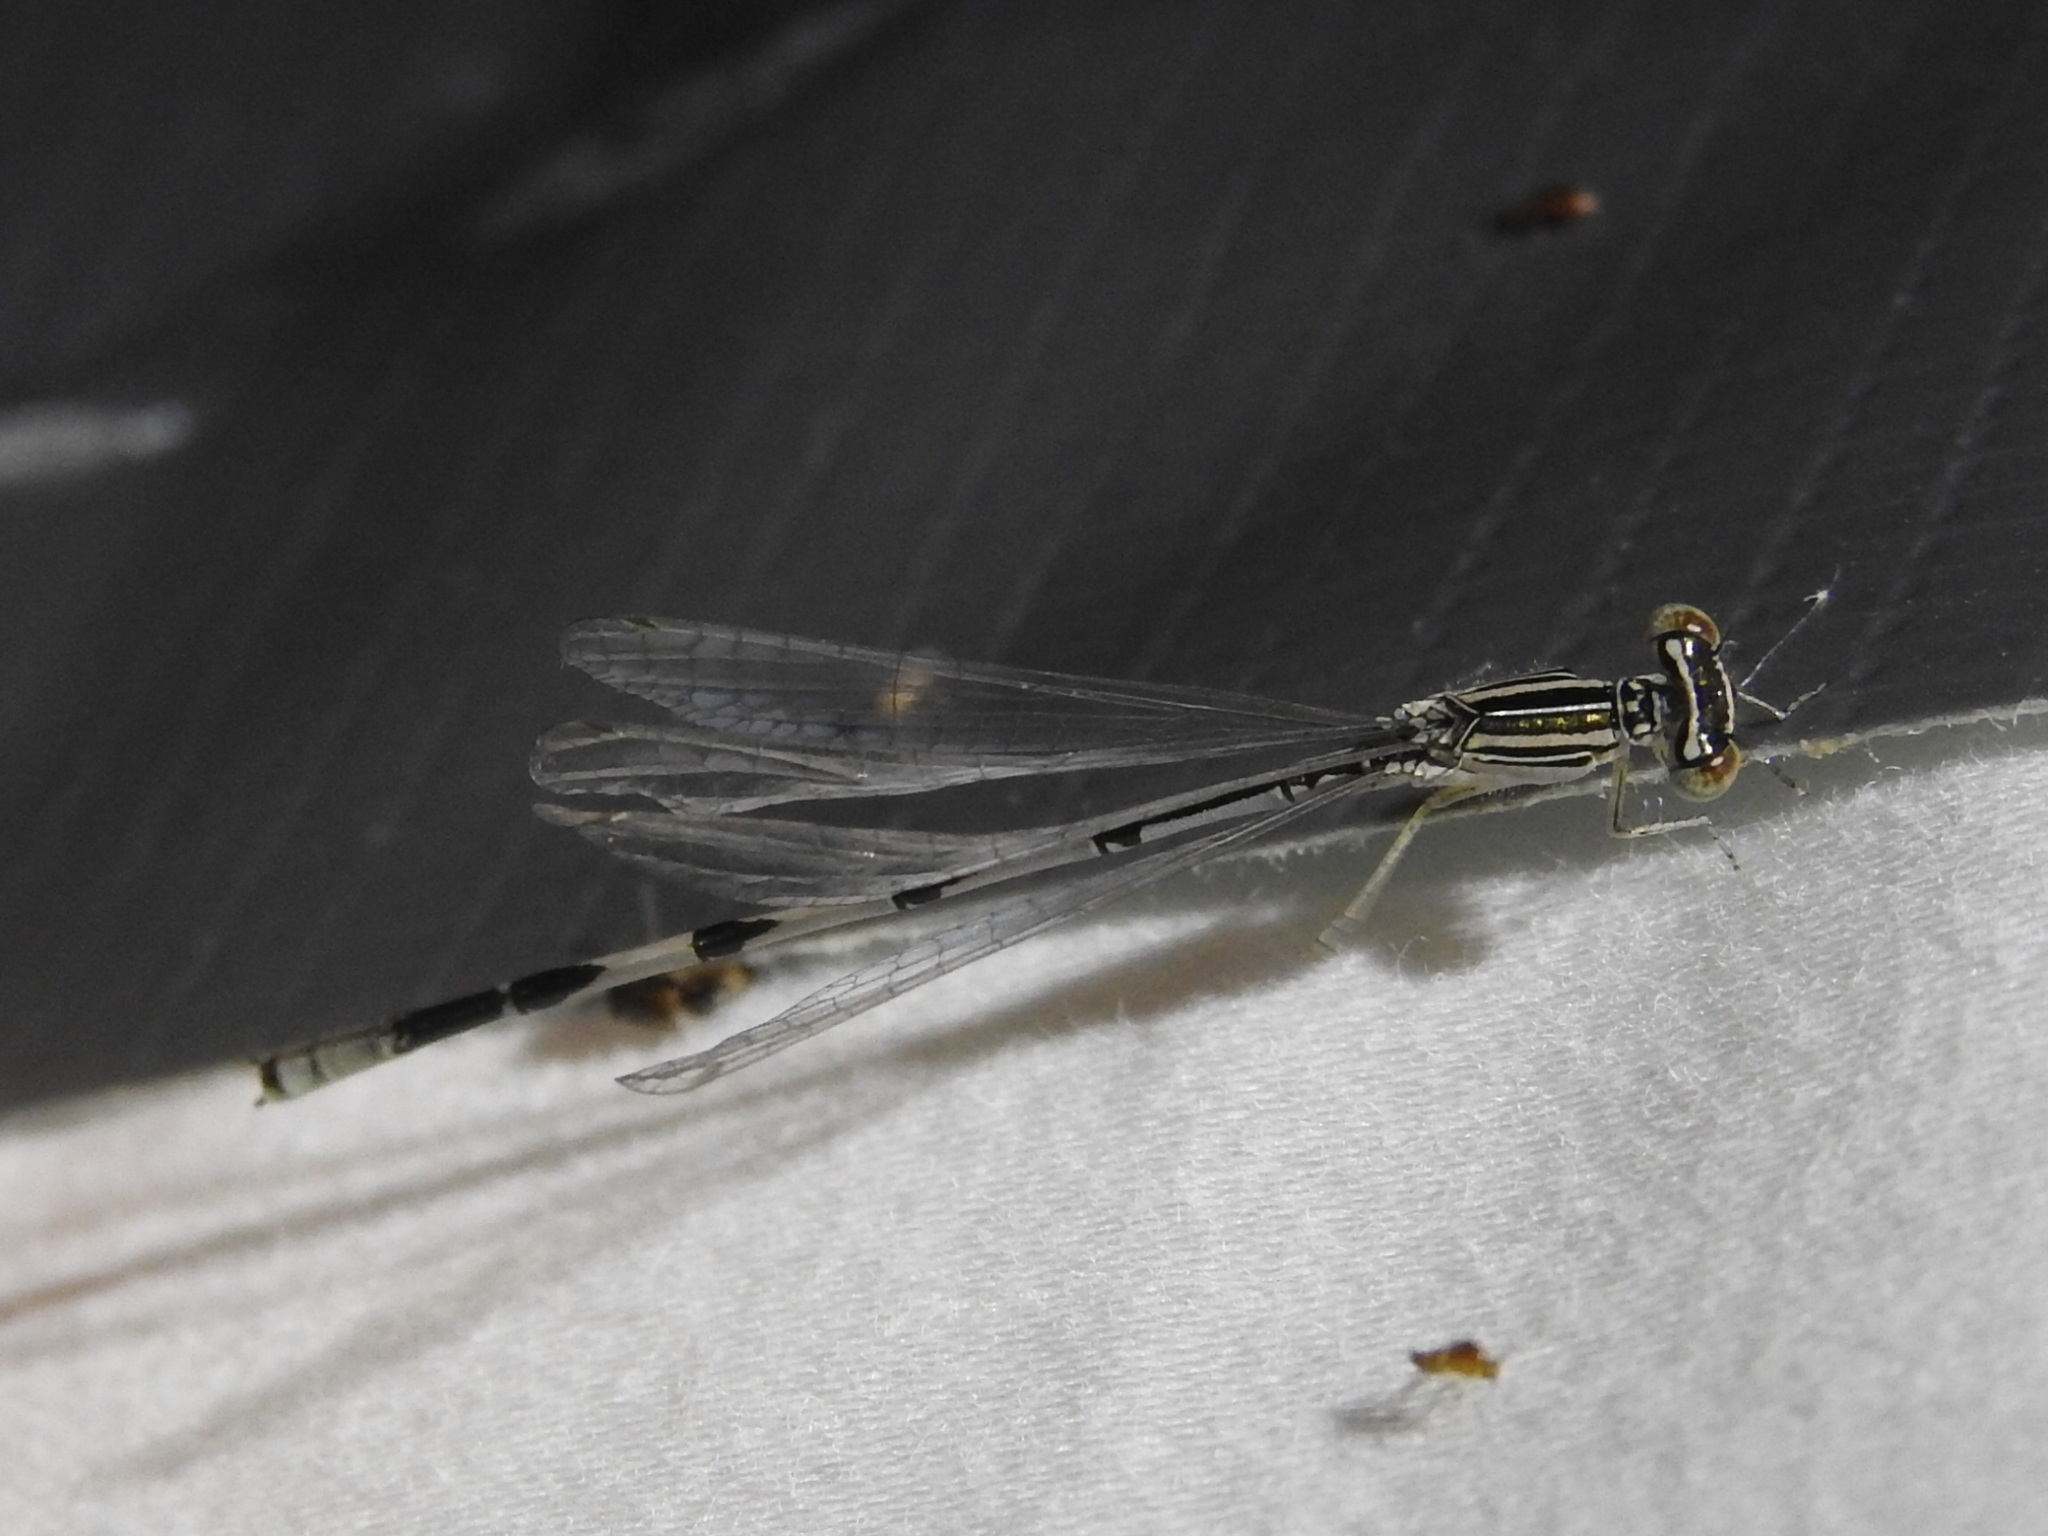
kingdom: Animalia
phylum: Arthropoda
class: Insecta
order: Odonata
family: Coenagrionidae
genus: Enallagma
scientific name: Enallagma basidens
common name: Double-striped bluet
